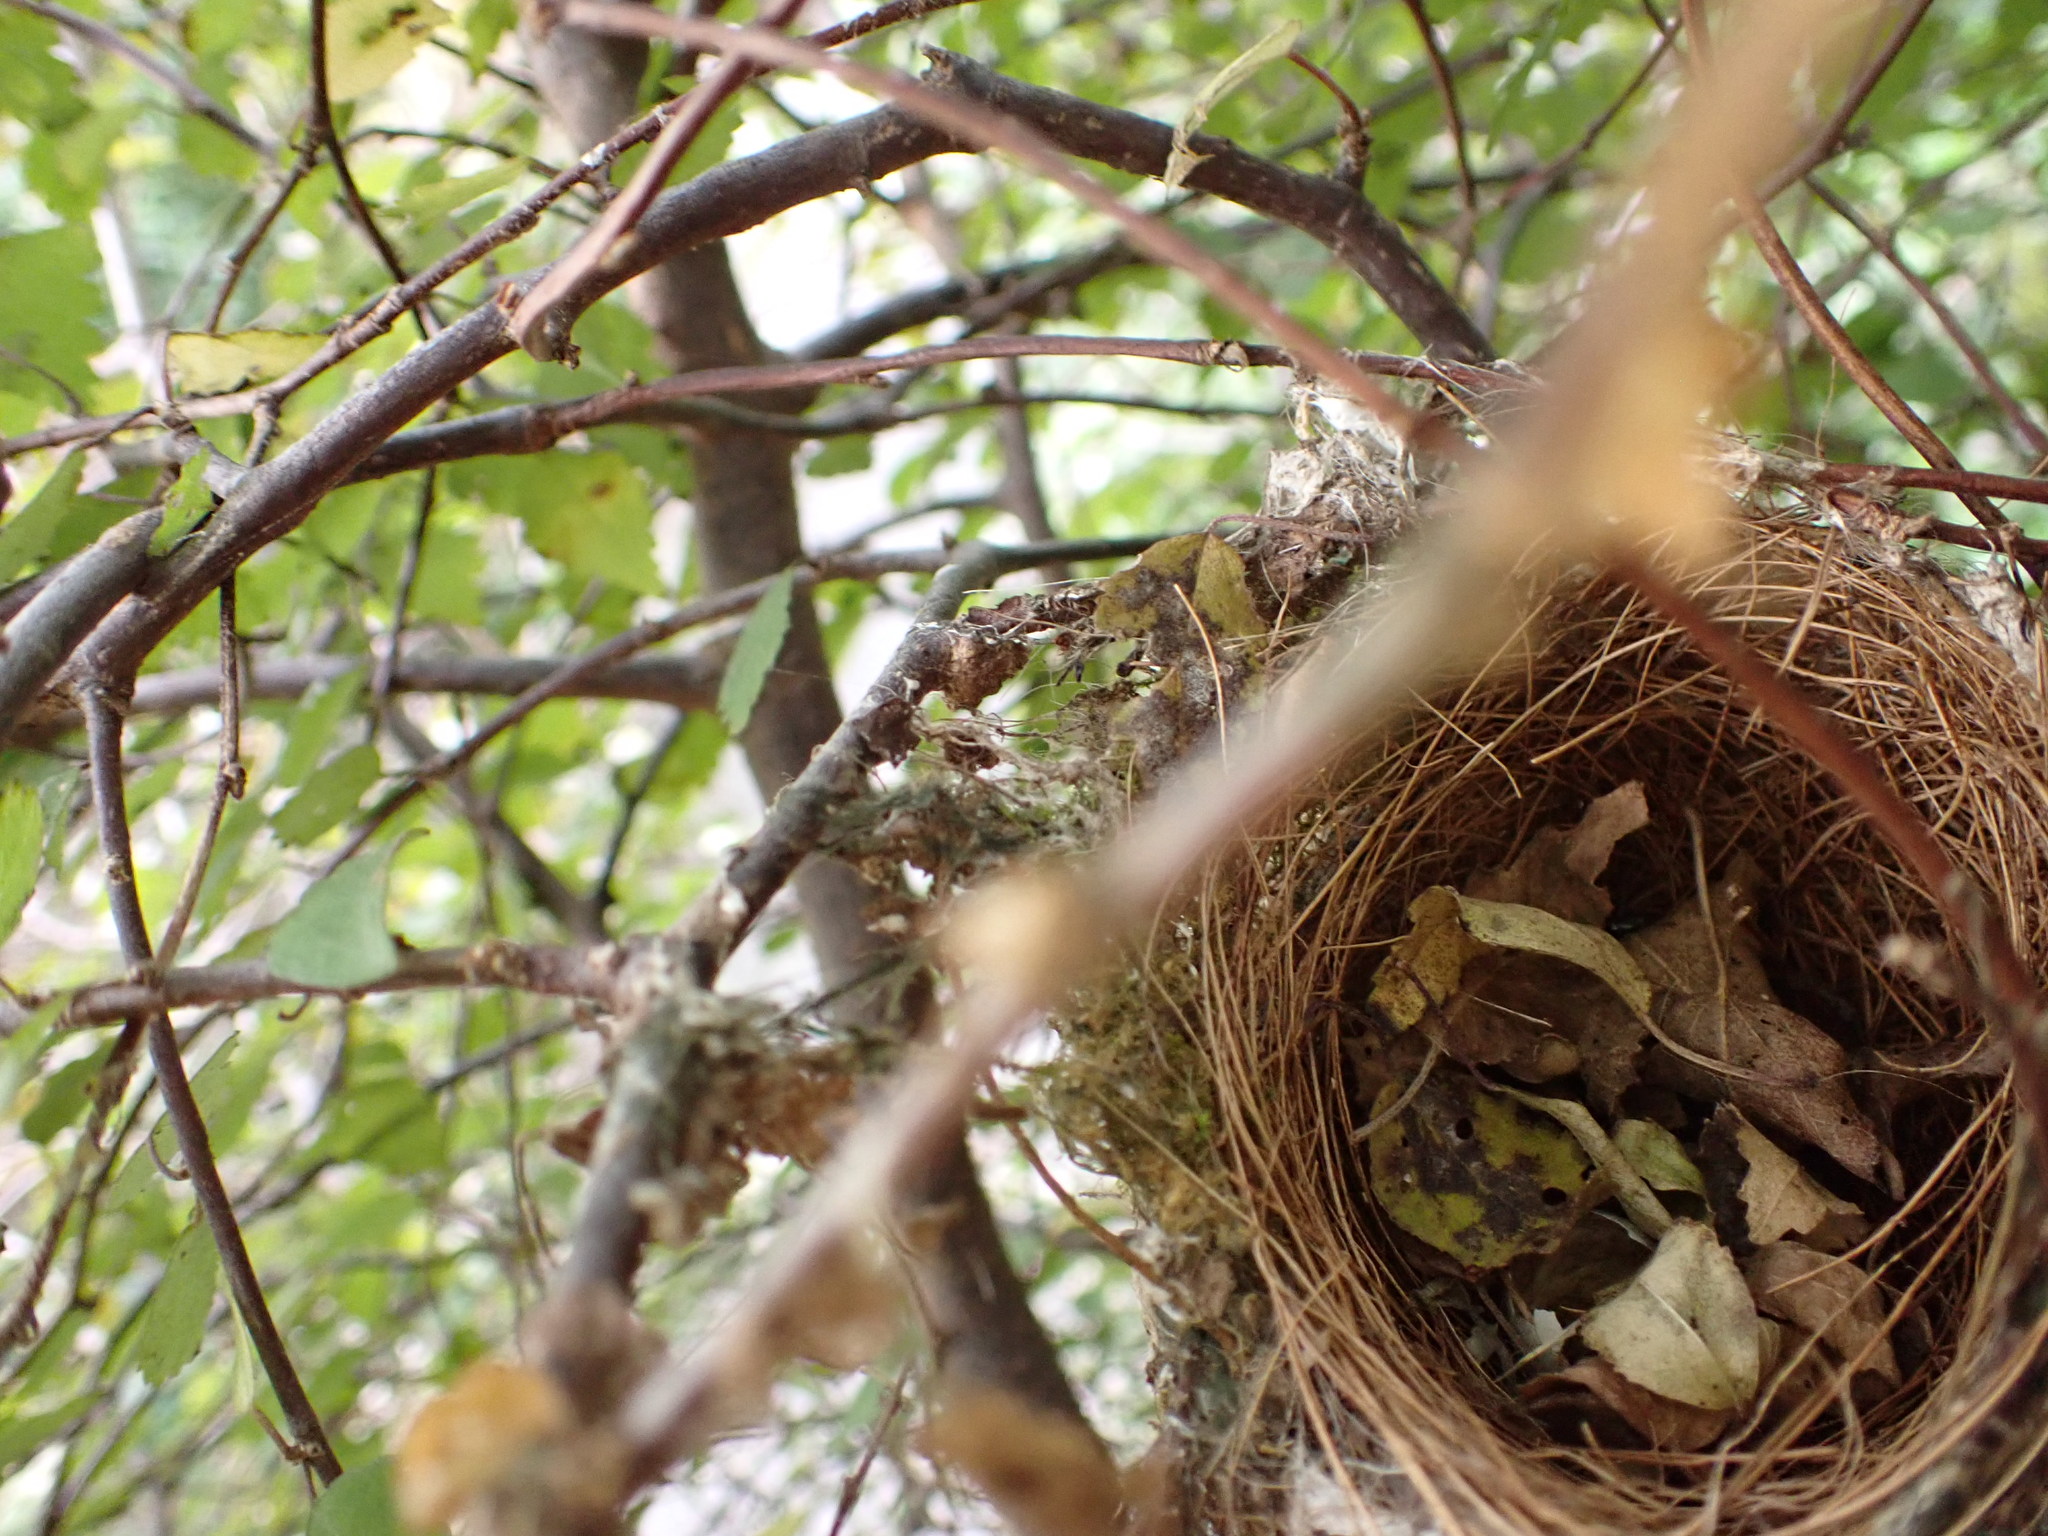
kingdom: Animalia
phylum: Chordata
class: Aves
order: Passeriformes
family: Zosteropidae
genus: Zosterops
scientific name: Zosterops lateralis
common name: Silvereye
